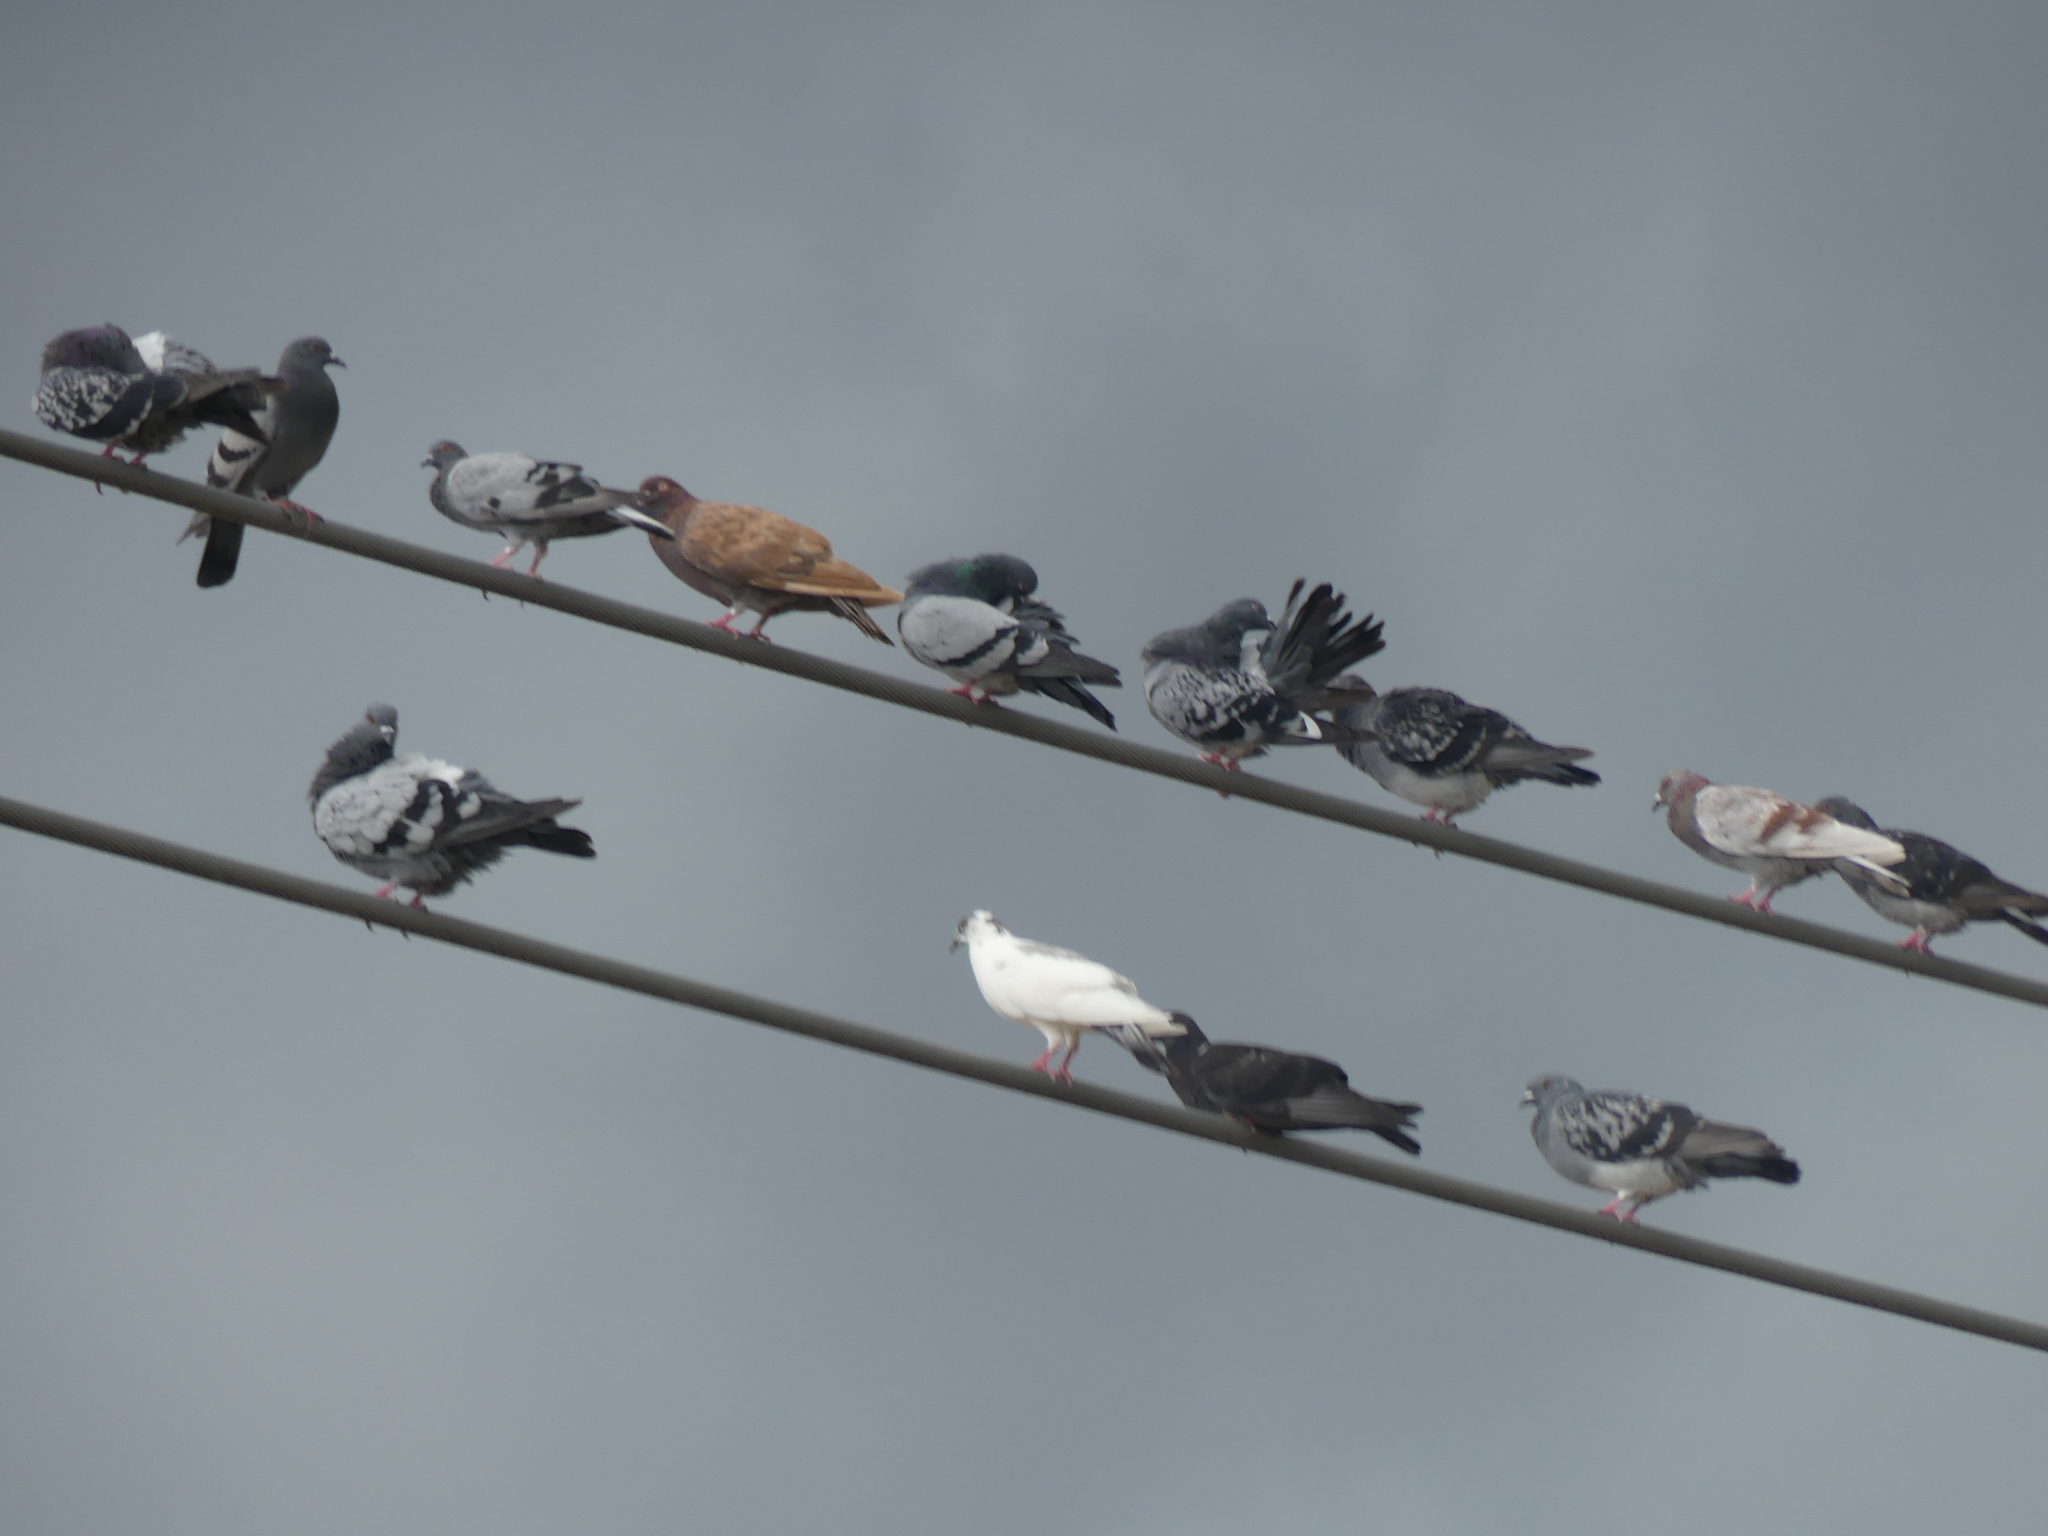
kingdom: Animalia
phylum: Chordata
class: Aves
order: Columbiformes
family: Columbidae
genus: Columba
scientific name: Columba livia
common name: Rock pigeon
